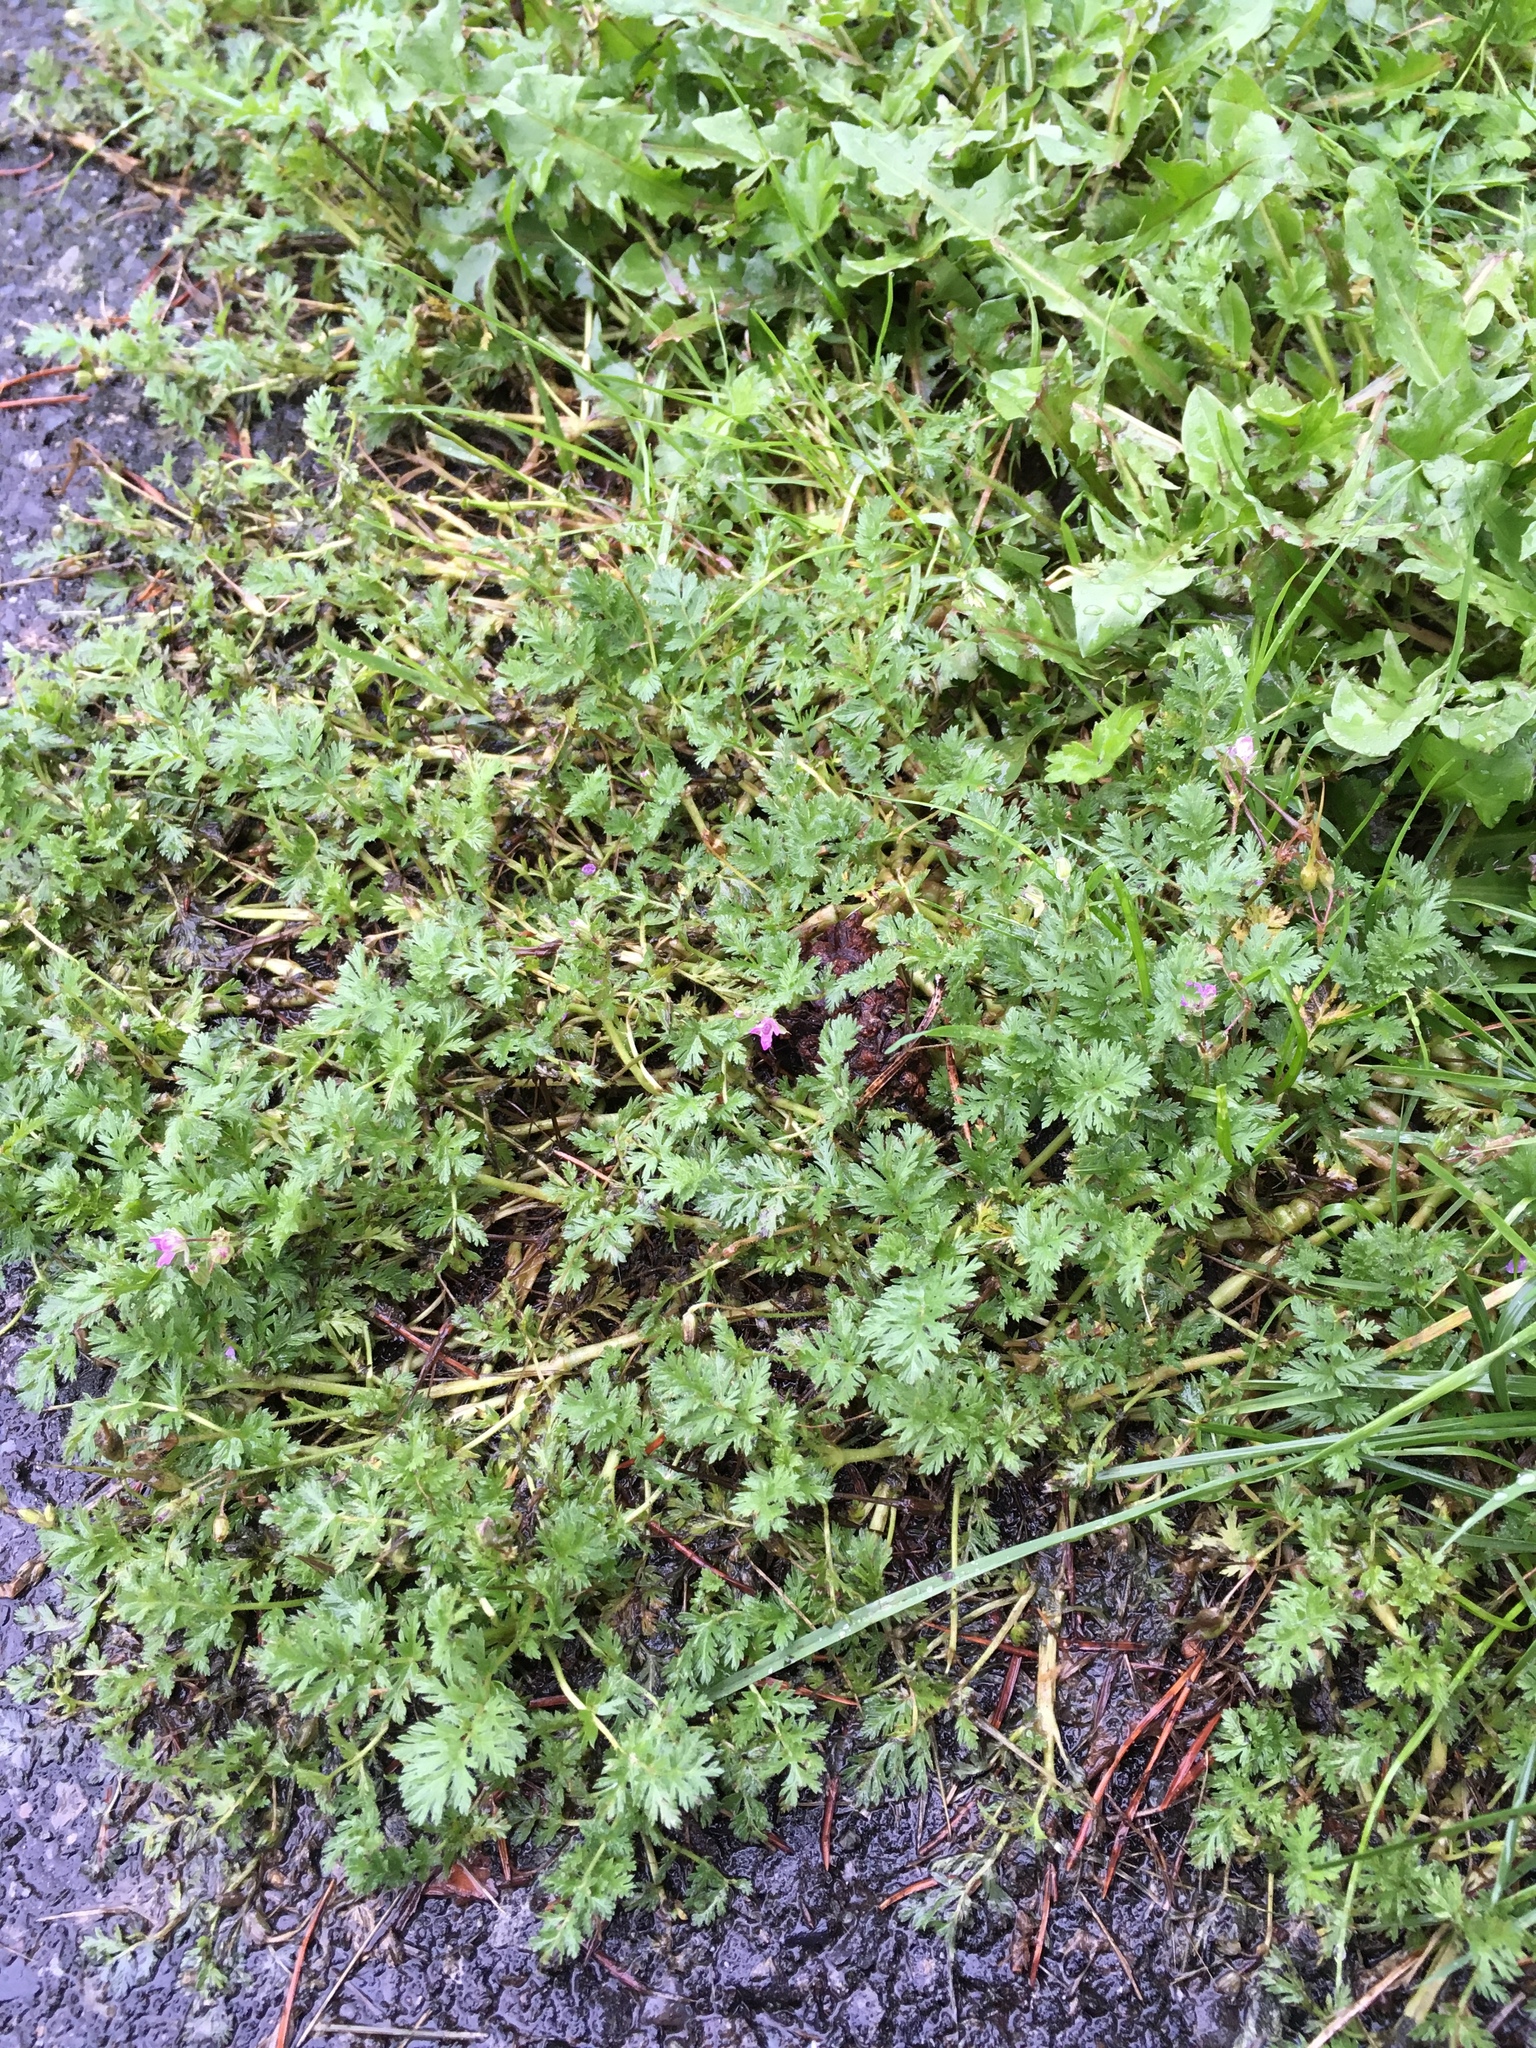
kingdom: Plantae
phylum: Tracheophyta
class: Magnoliopsida
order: Geraniales
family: Geraniaceae
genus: Erodium
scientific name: Erodium cicutarium
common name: Common stork's-bill
